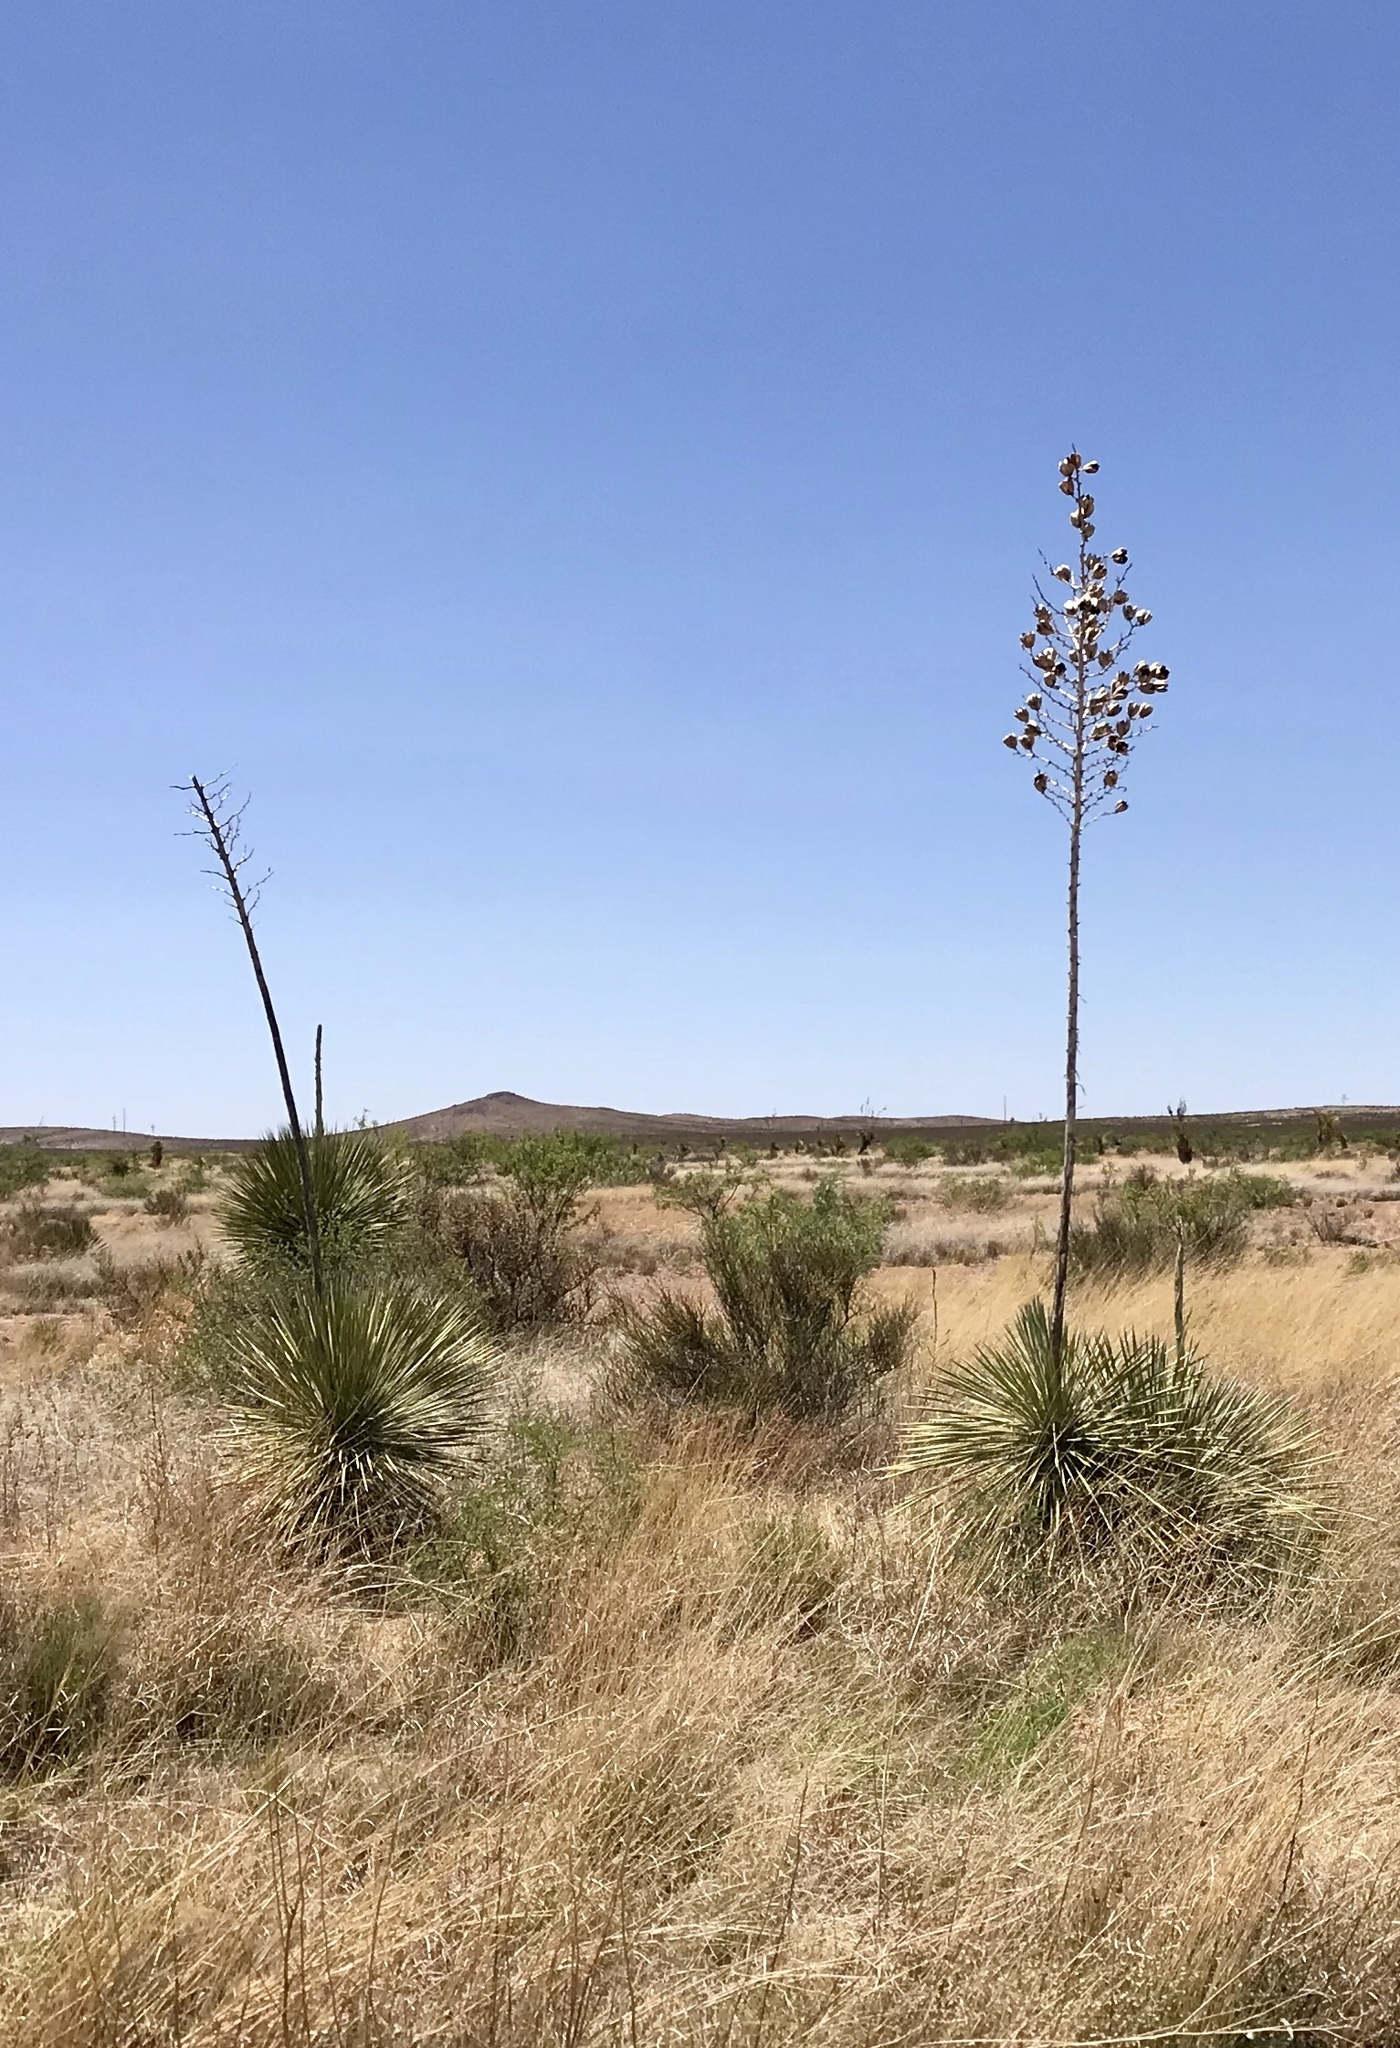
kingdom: Plantae
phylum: Tracheophyta
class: Liliopsida
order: Asparagales
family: Asparagaceae
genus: Yucca
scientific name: Yucca elata
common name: Palmella
